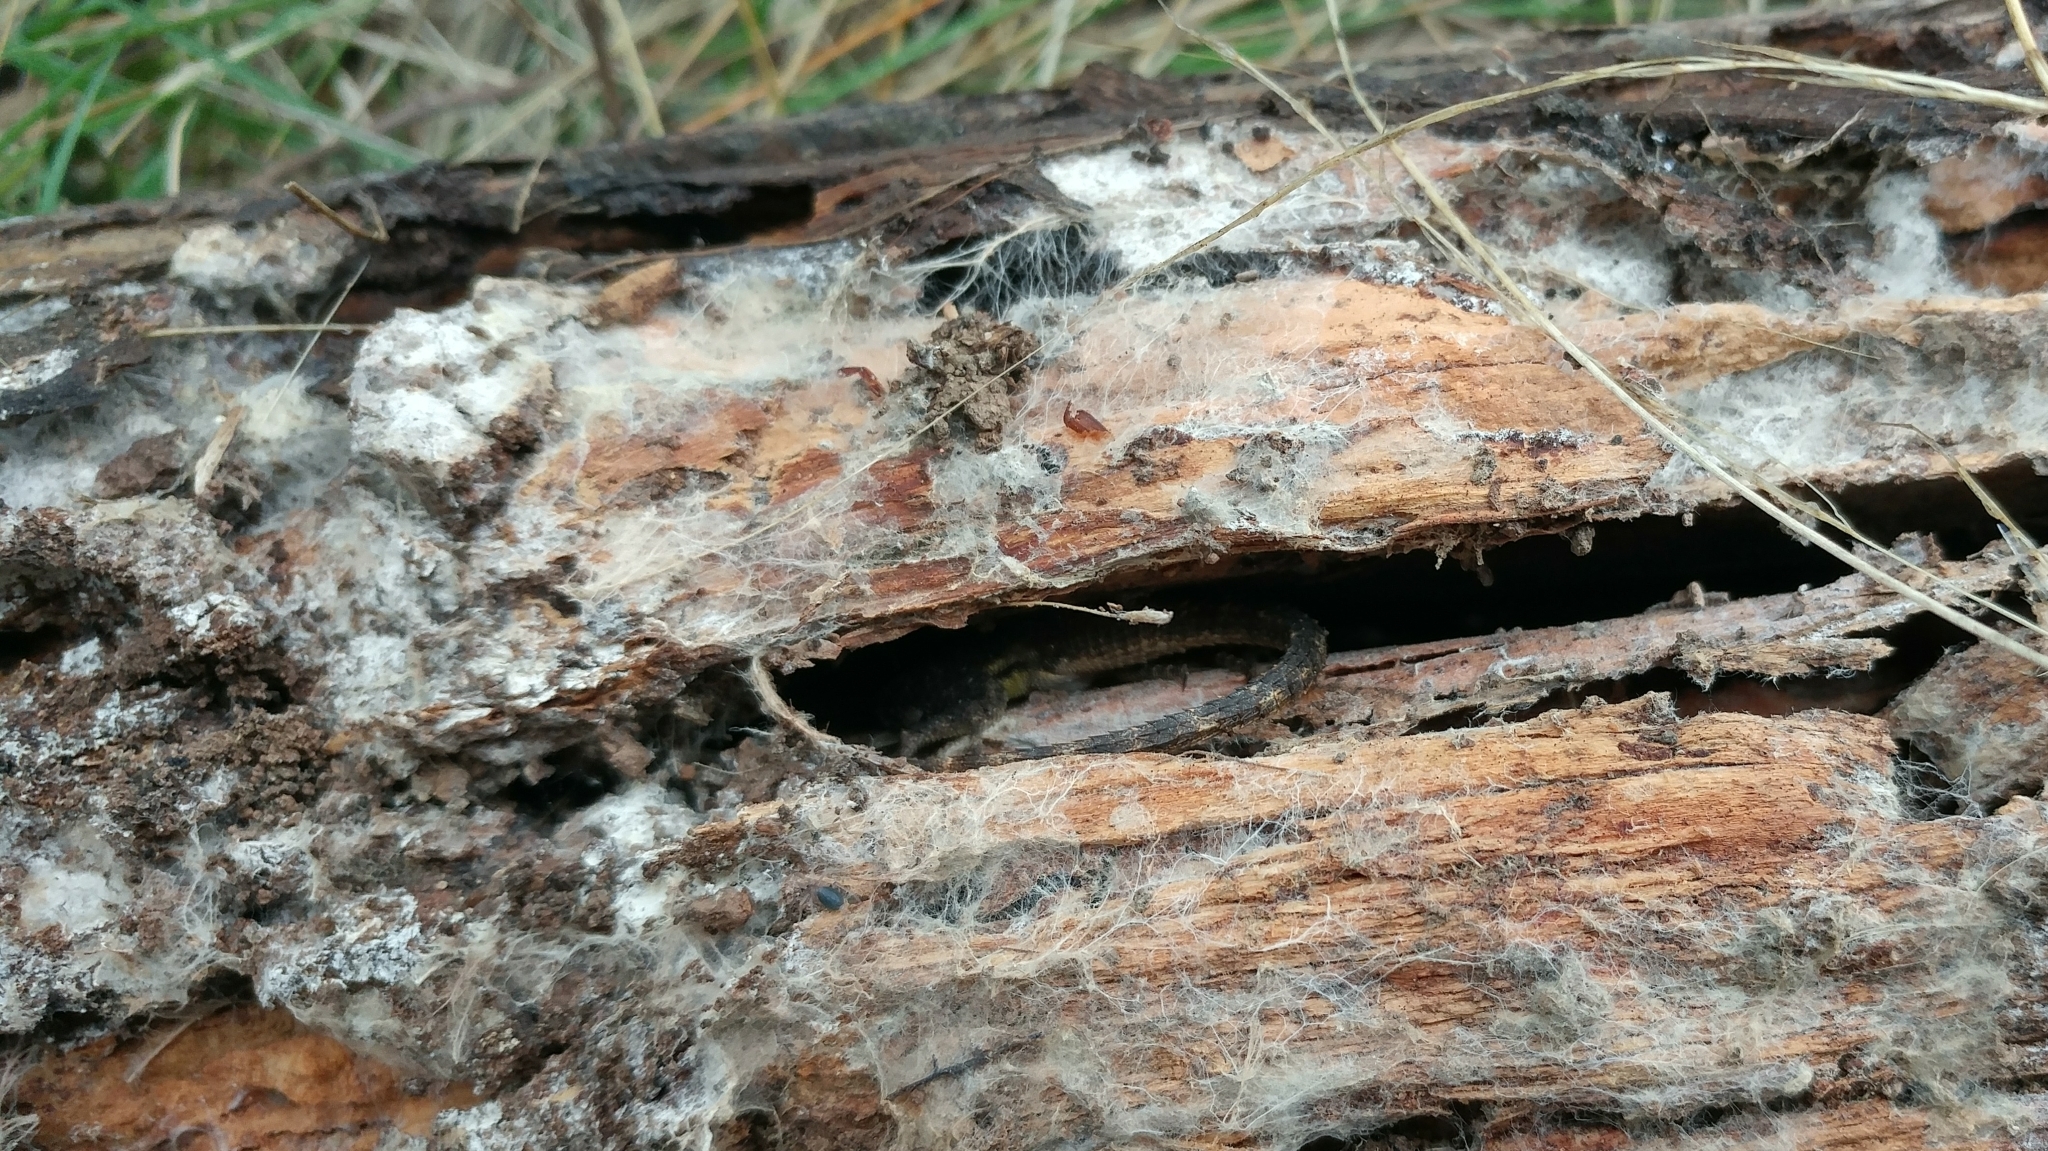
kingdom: Animalia
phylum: Chordata
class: Squamata
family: Phrynosomatidae
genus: Sceloporus
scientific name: Sceloporus occidentalis
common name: Western fence lizard
